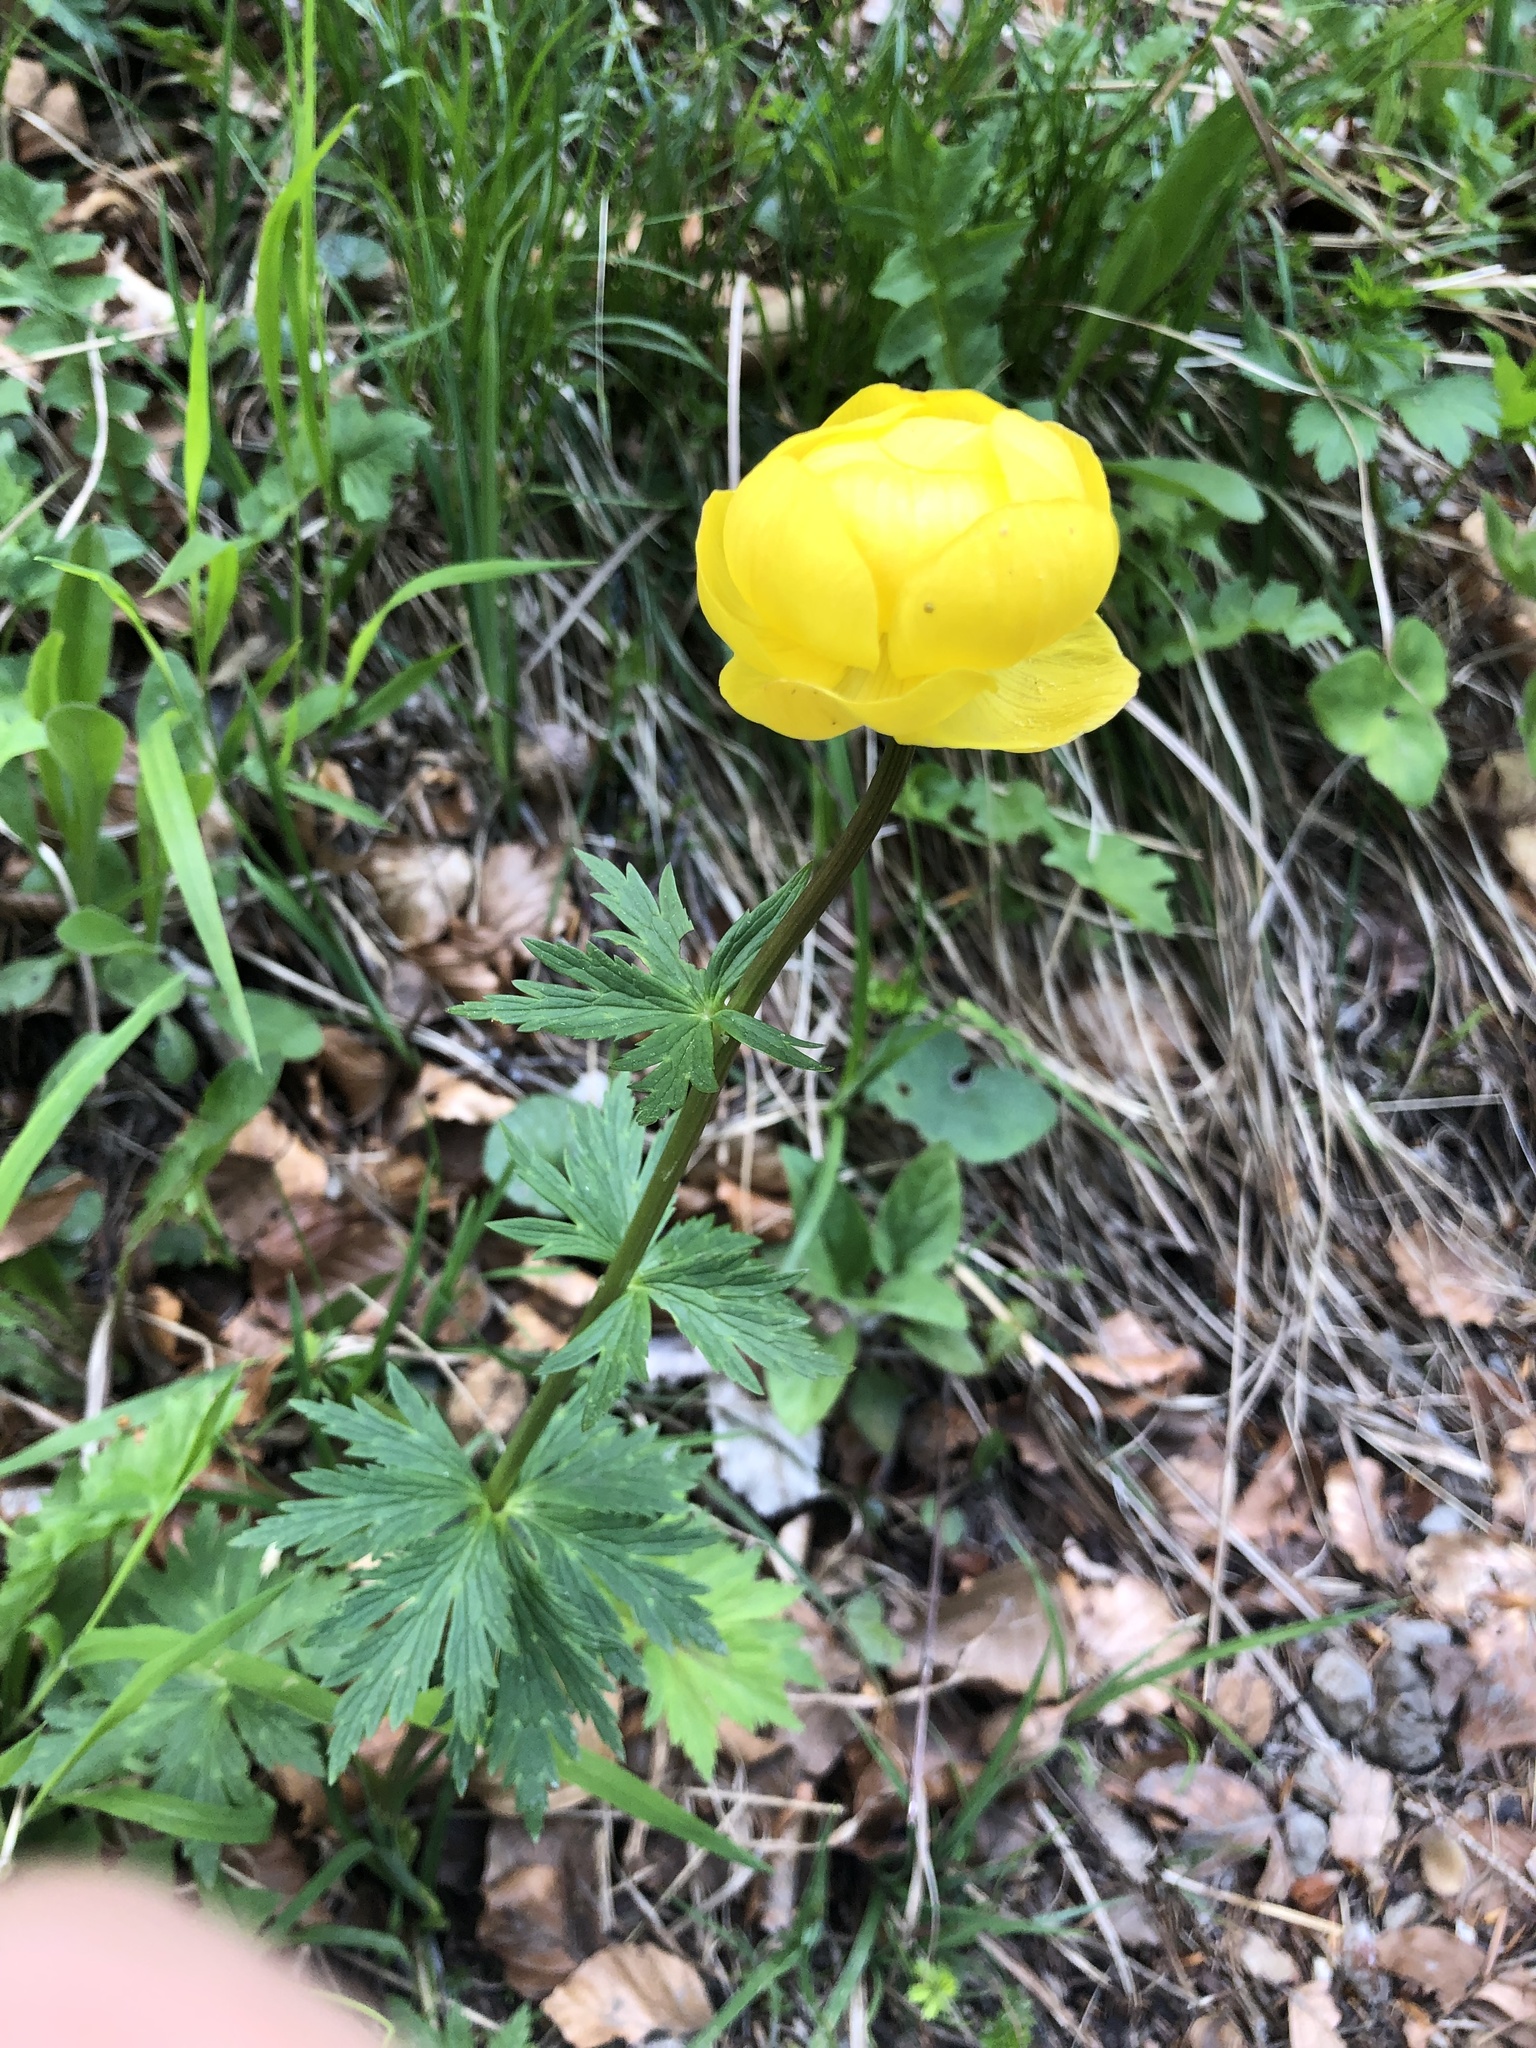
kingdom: Plantae
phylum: Tracheophyta
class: Magnoliopsida
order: Ranunculales
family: Ranunculaceae
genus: Trollius
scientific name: Trollius europaeus
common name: European globeflower
